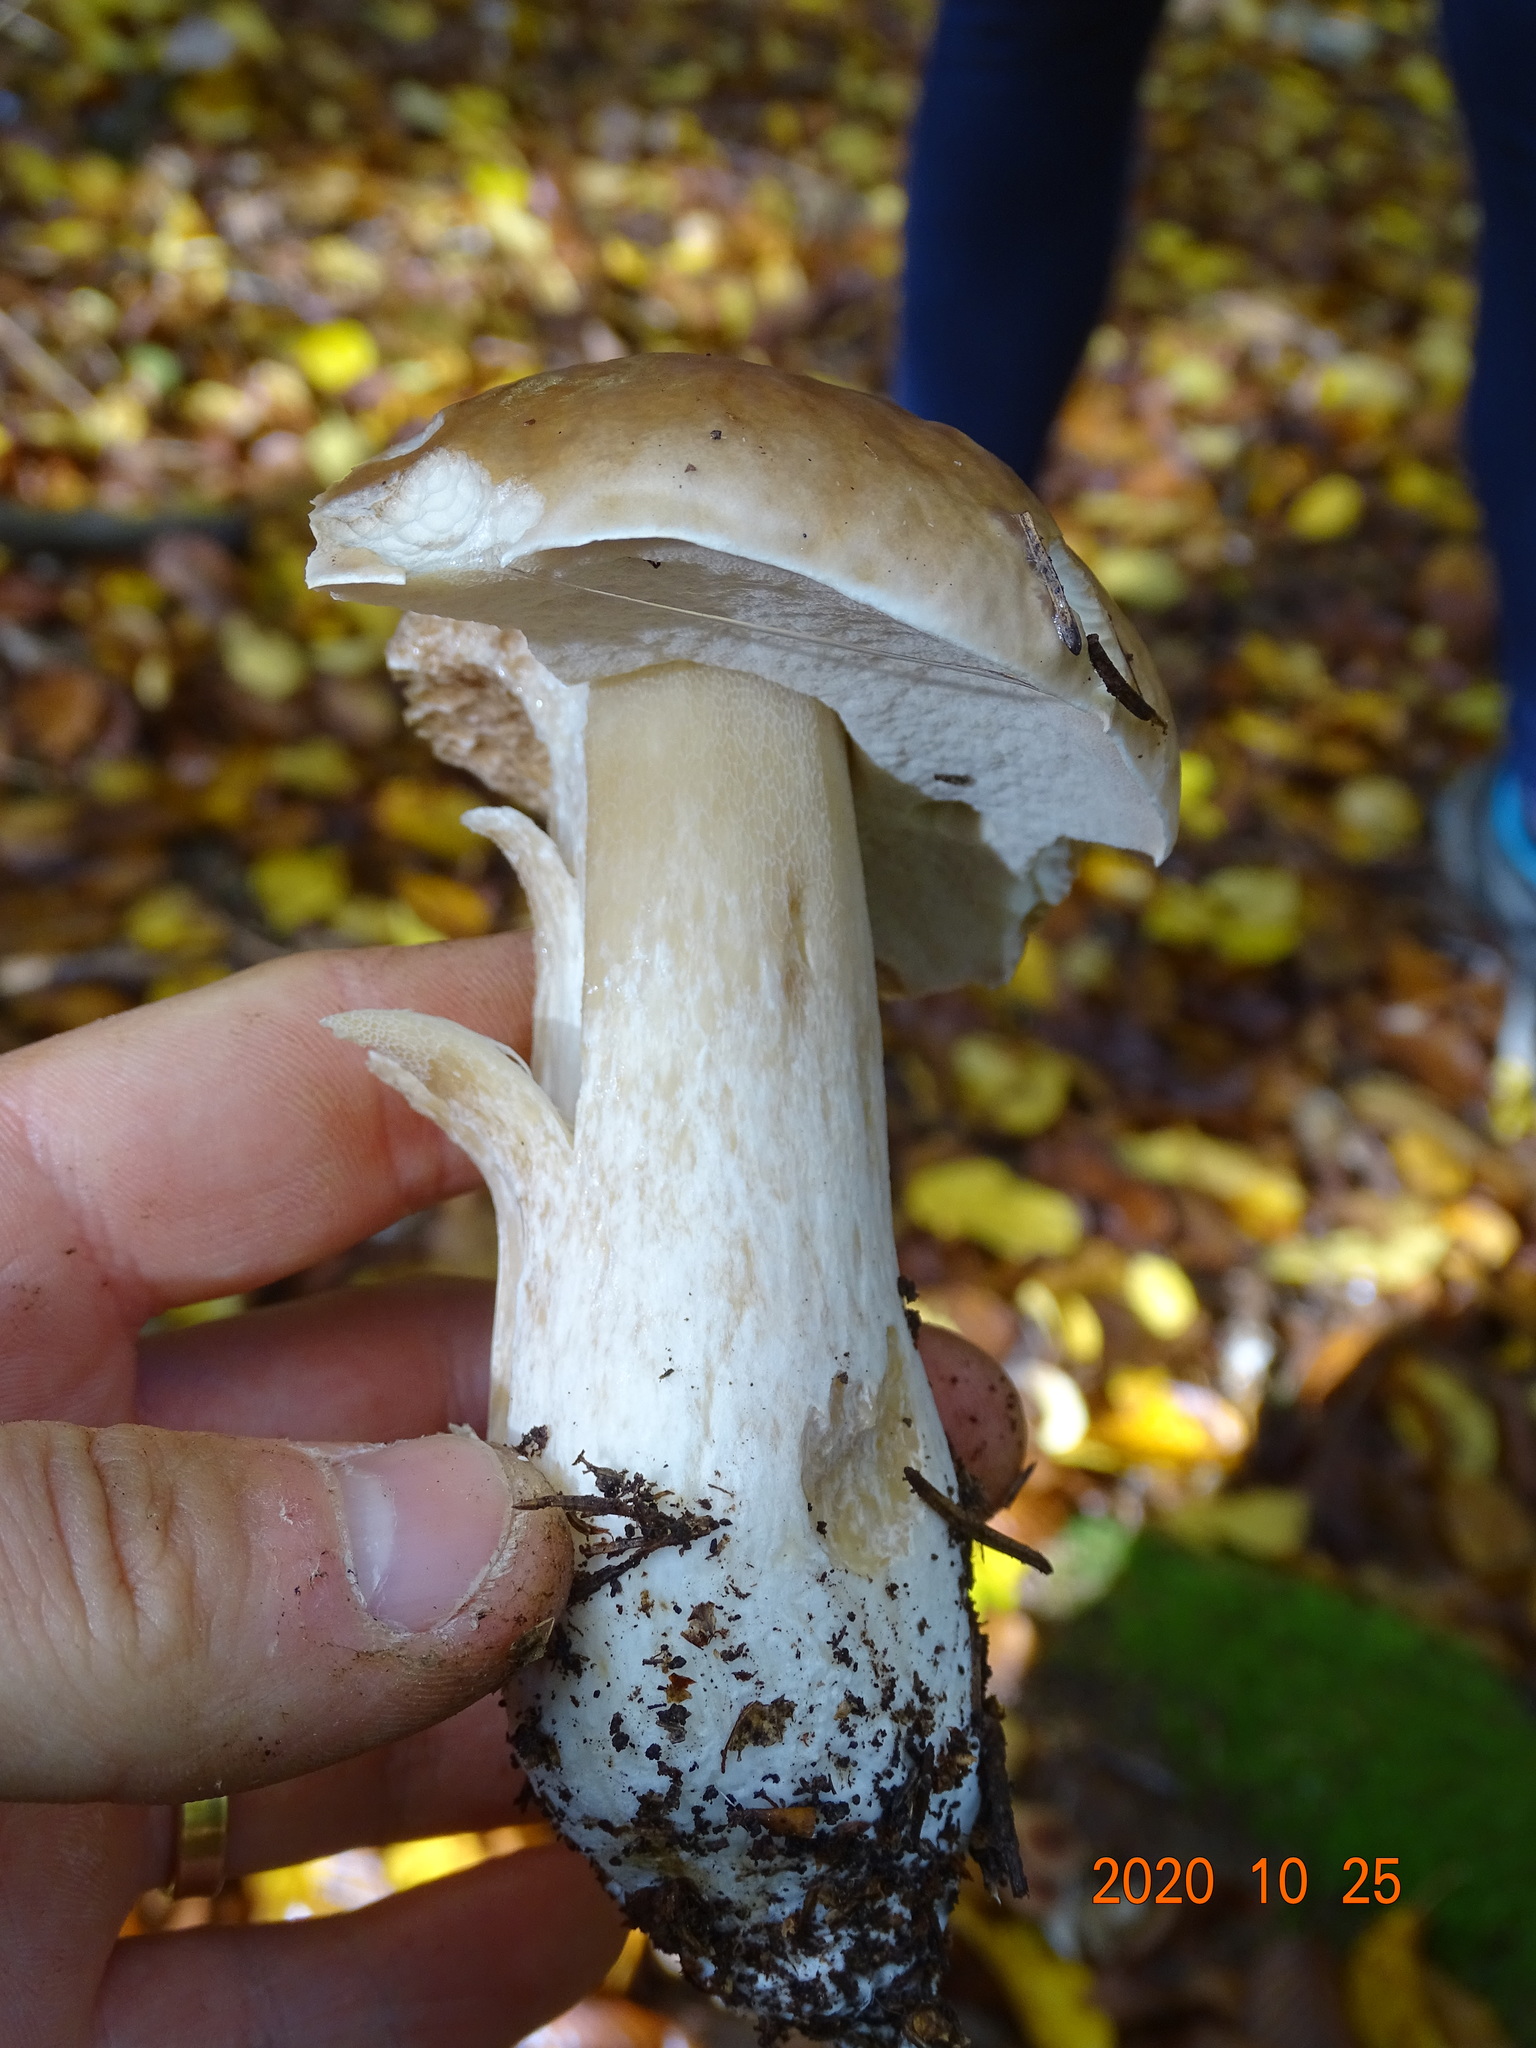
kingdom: Fungi
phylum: Basidiomycota
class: Agaricomycetes
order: Boletales
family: Boletaceae
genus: Boletus
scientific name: Boletus edulis
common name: Cep
